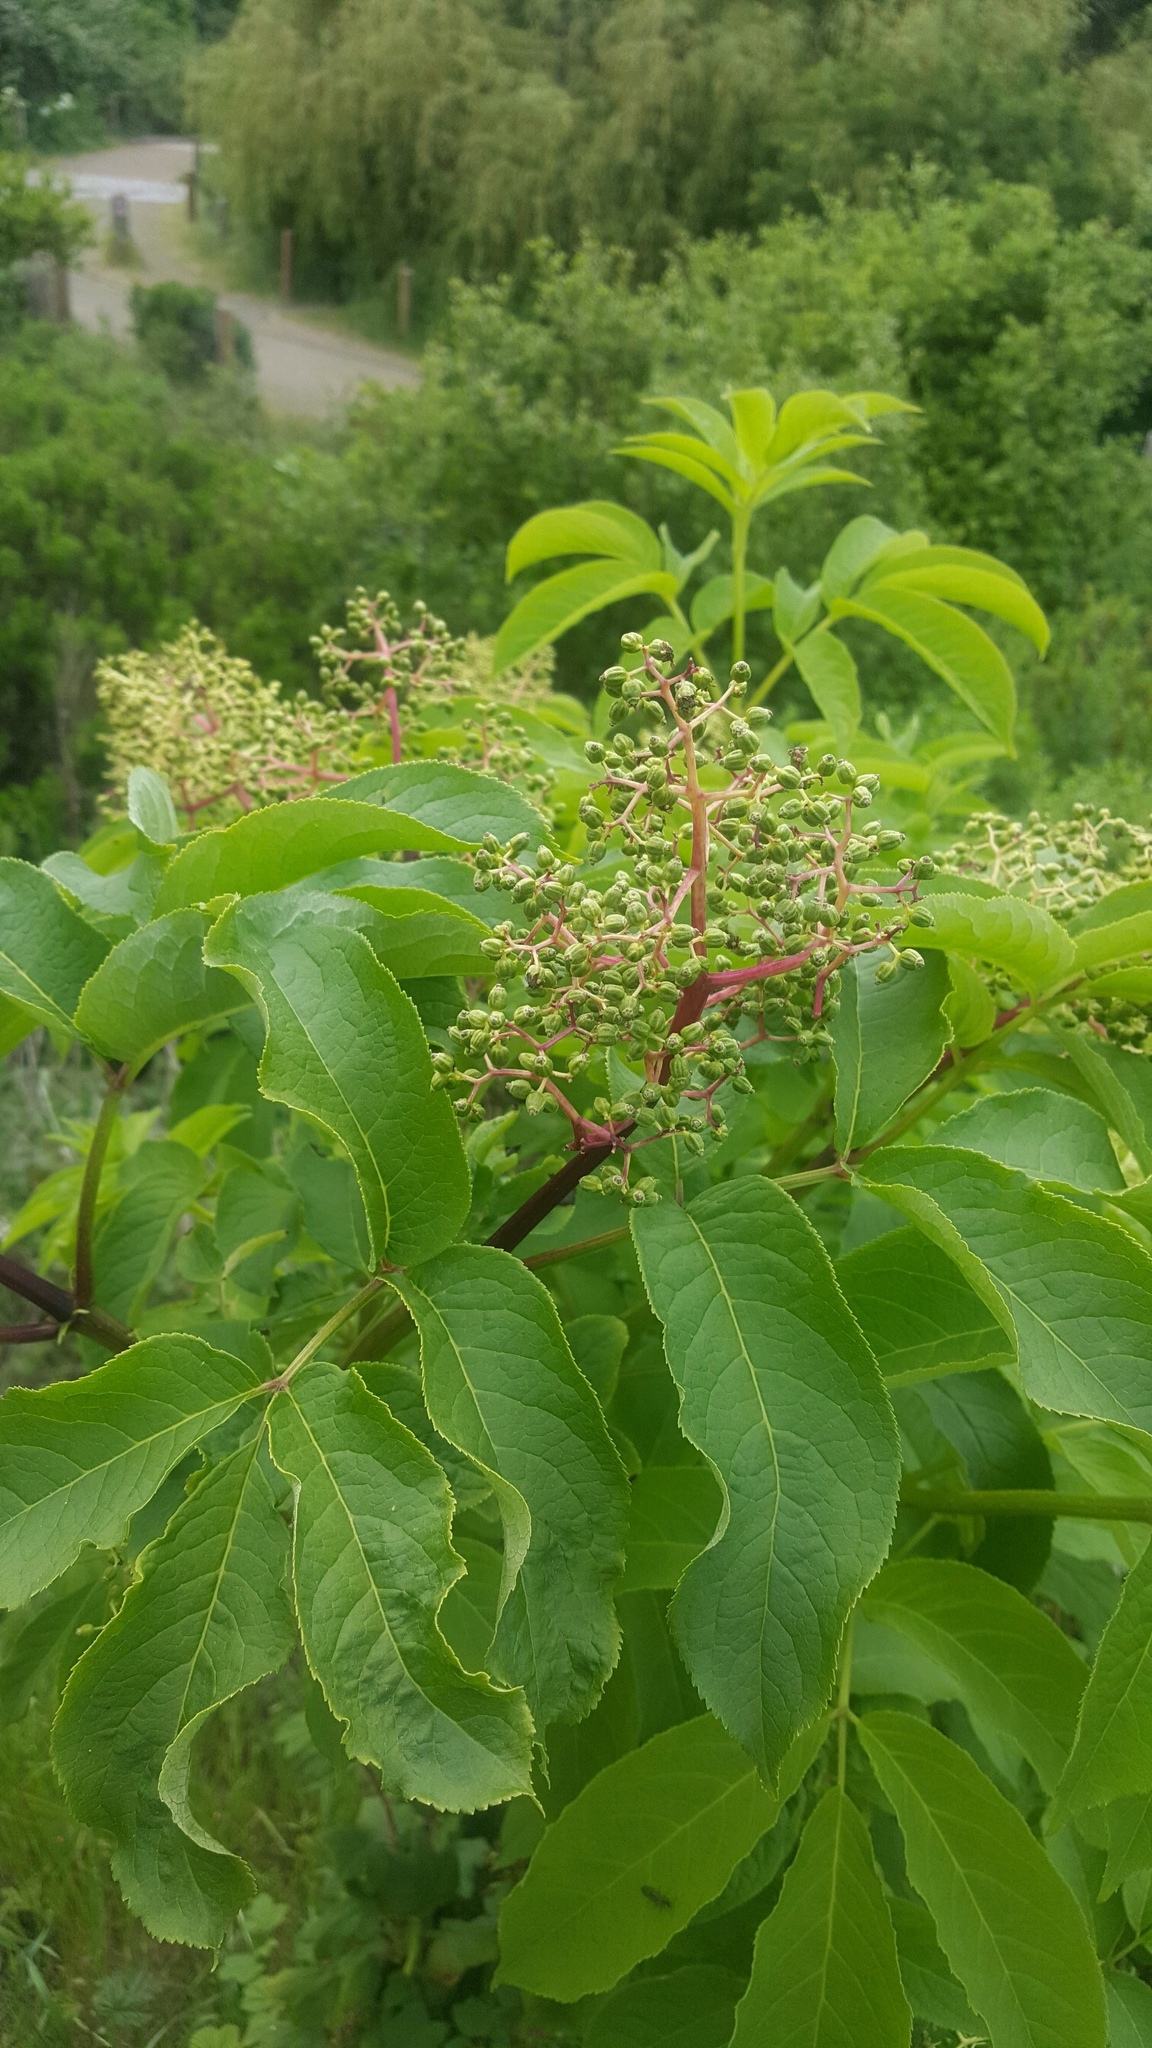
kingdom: Plantae
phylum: Tracheophyta
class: Magnoliopsida
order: Dipsacales
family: Viburnaceae
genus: Sambucus
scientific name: Sambucus racemosa
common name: Red-berried elder
